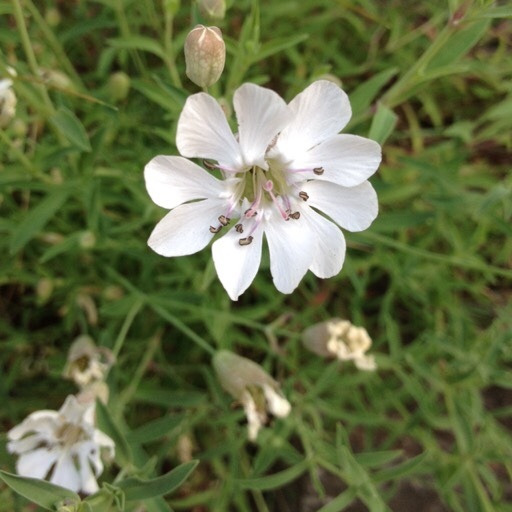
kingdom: Plantae
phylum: Tracheophyta
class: Magnoliopsida
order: Caryophyllales
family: Caryophyllaceae
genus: Silene
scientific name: Silene vulgaris
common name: Bladder campion
